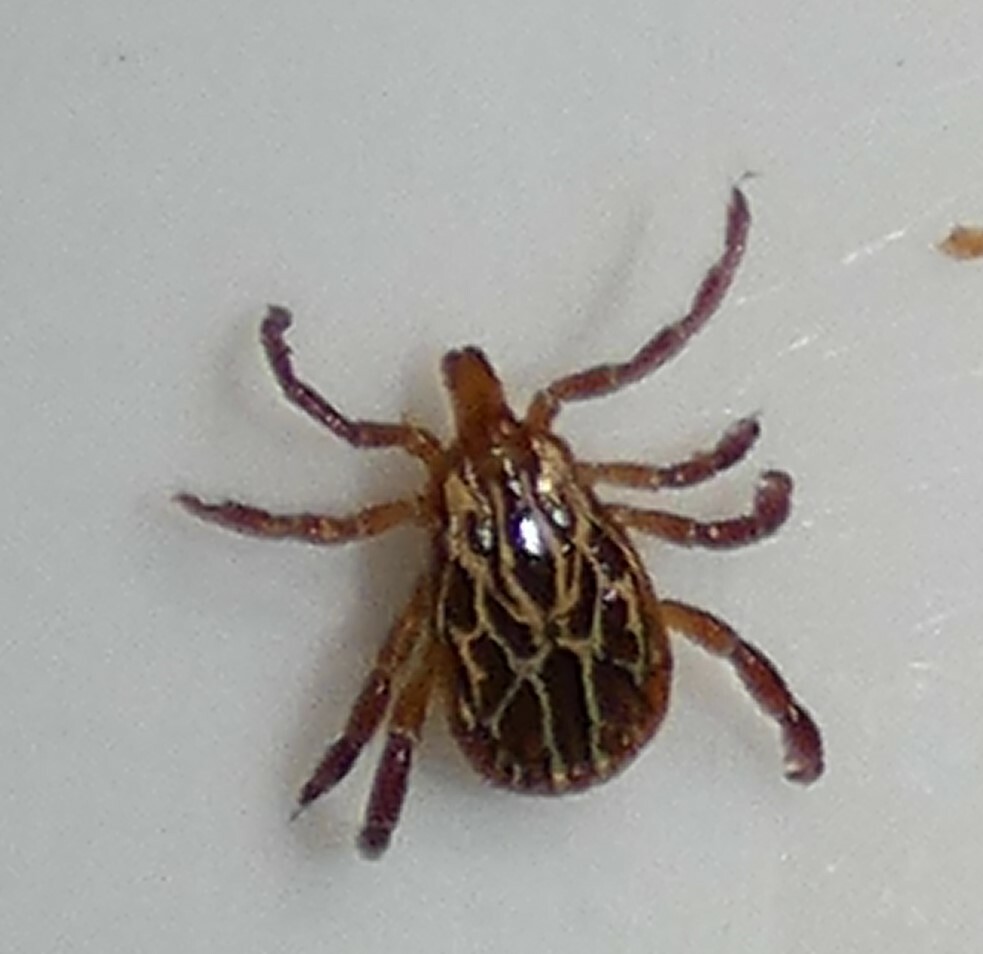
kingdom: Animalia
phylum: Arthropoda
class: Arachnida
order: Ixodida
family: Ixodidae
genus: Amblyomma
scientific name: Amblyomma maculatum
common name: Gulf coast tick
